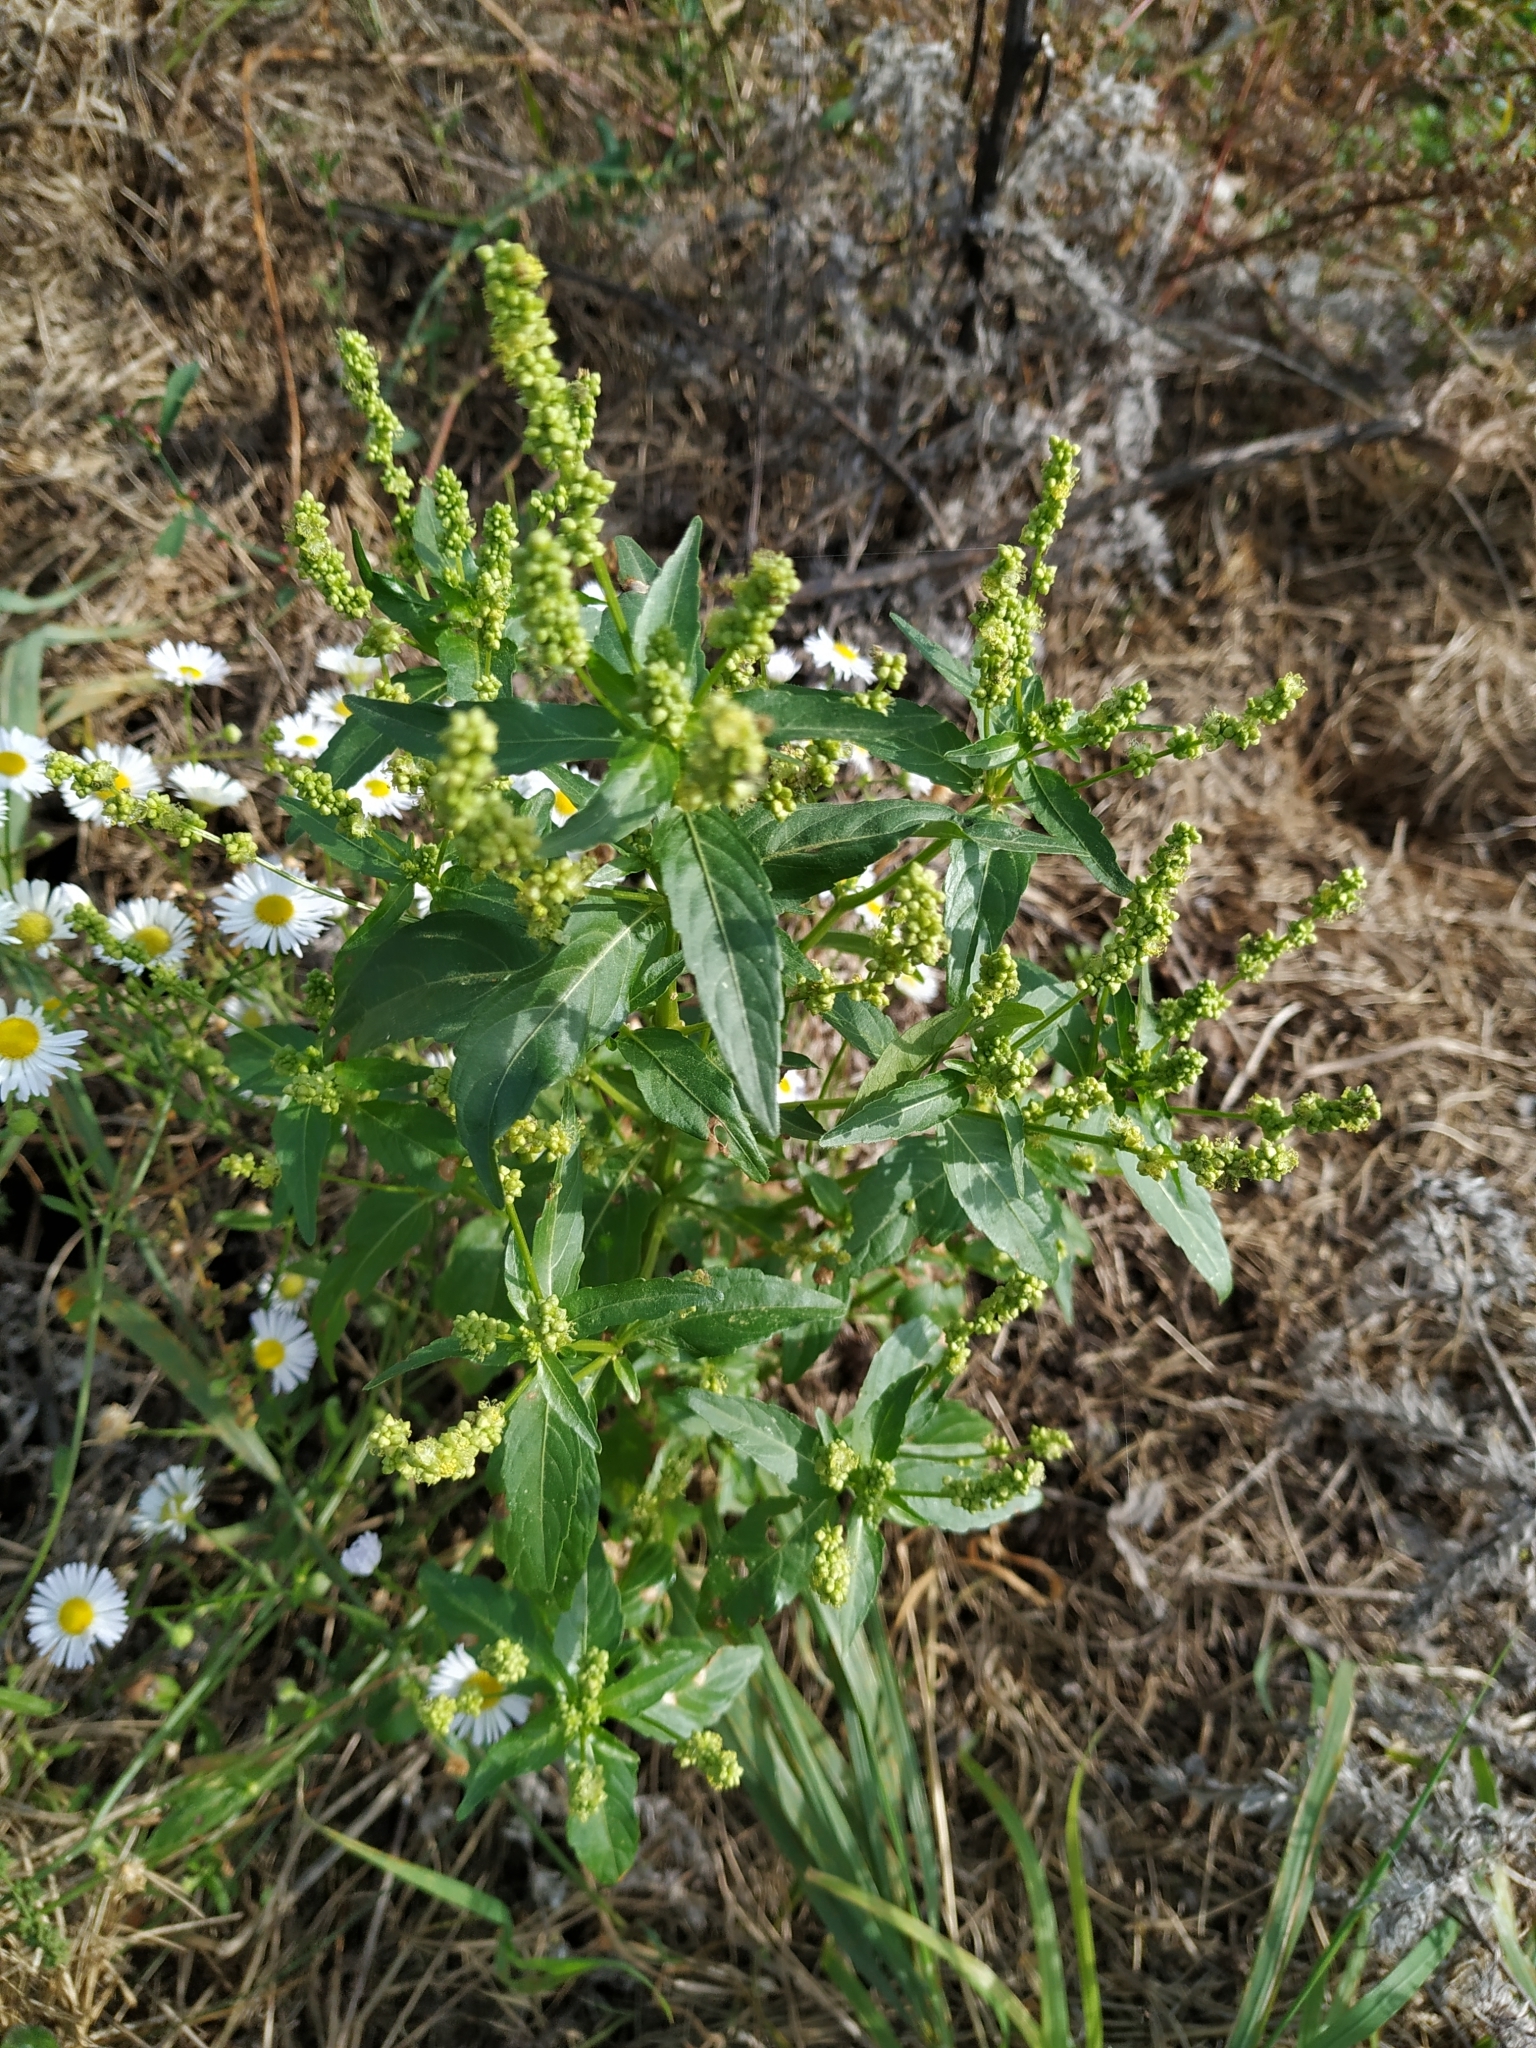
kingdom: Plantae
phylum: Tracheophyta
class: Magnoliopsida
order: Malpighiales
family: Euphorbiaceae
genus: Mercurialis
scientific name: Mercurialis annua
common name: Annual mercury
